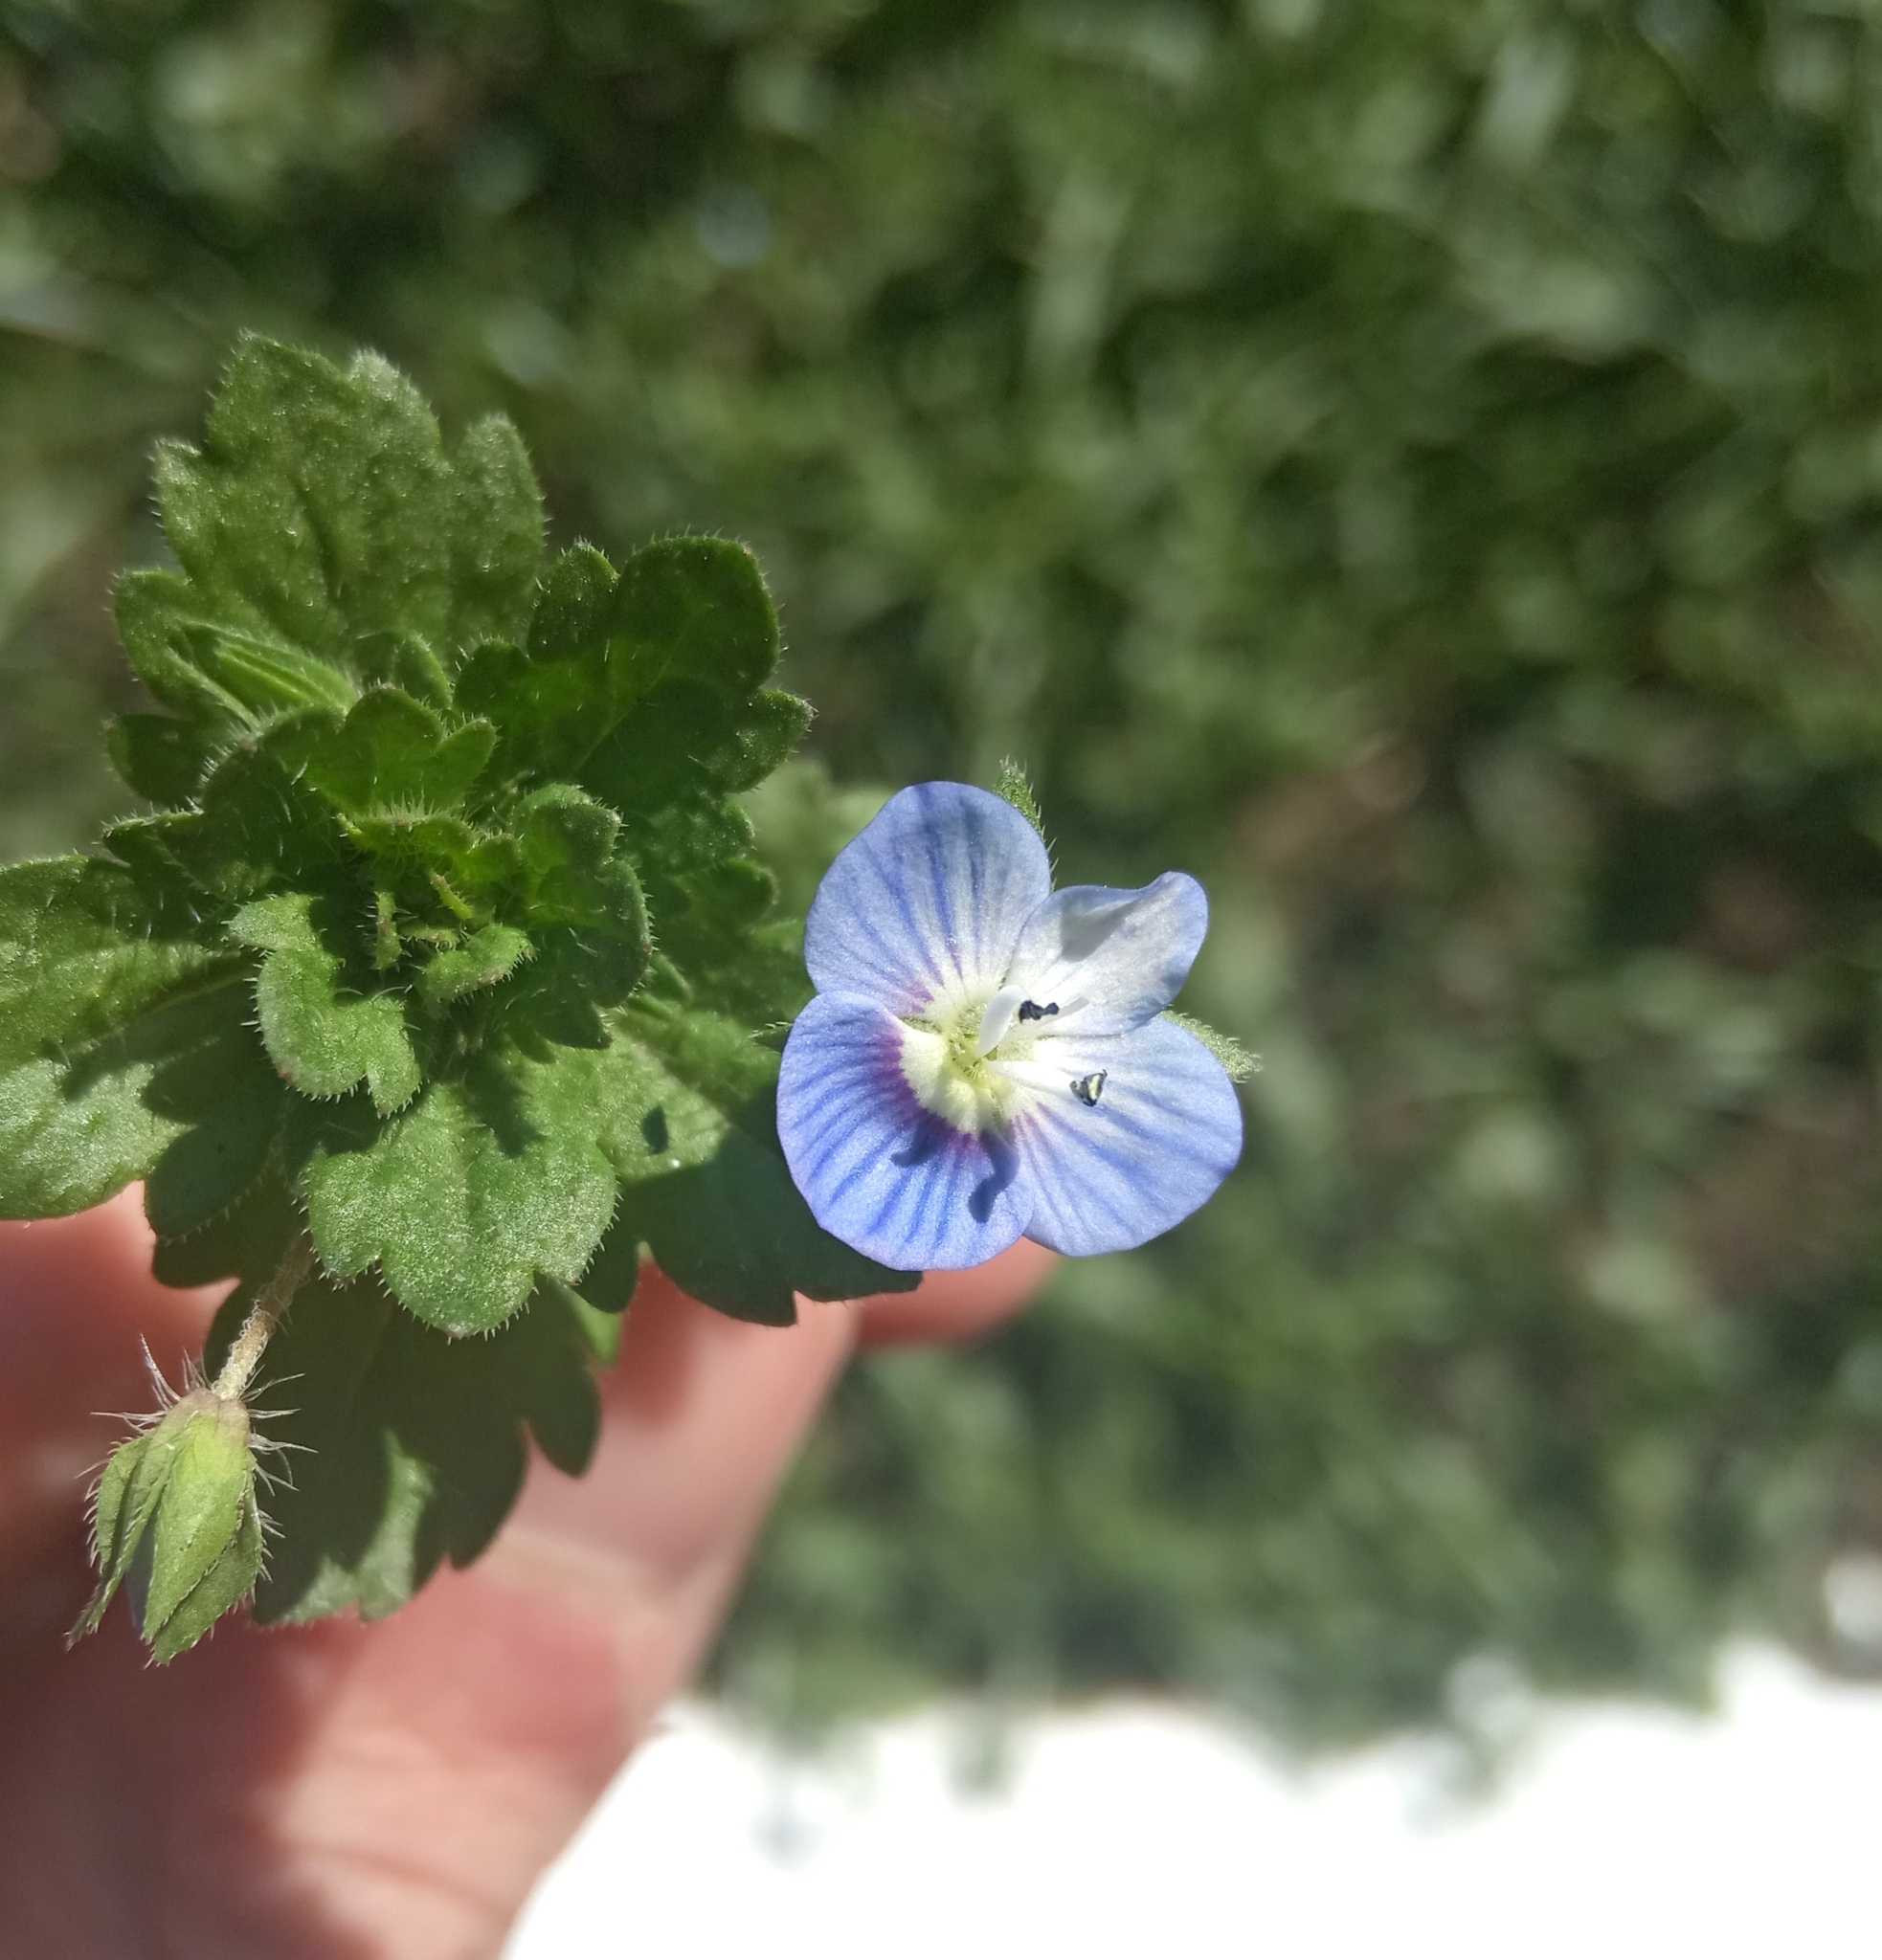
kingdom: Plantae
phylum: Tracheophyta
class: Magnoliopsida
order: Lamiales
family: Plantaginaceae
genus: Veronica
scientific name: Veronica persica
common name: Common field-speedwell
